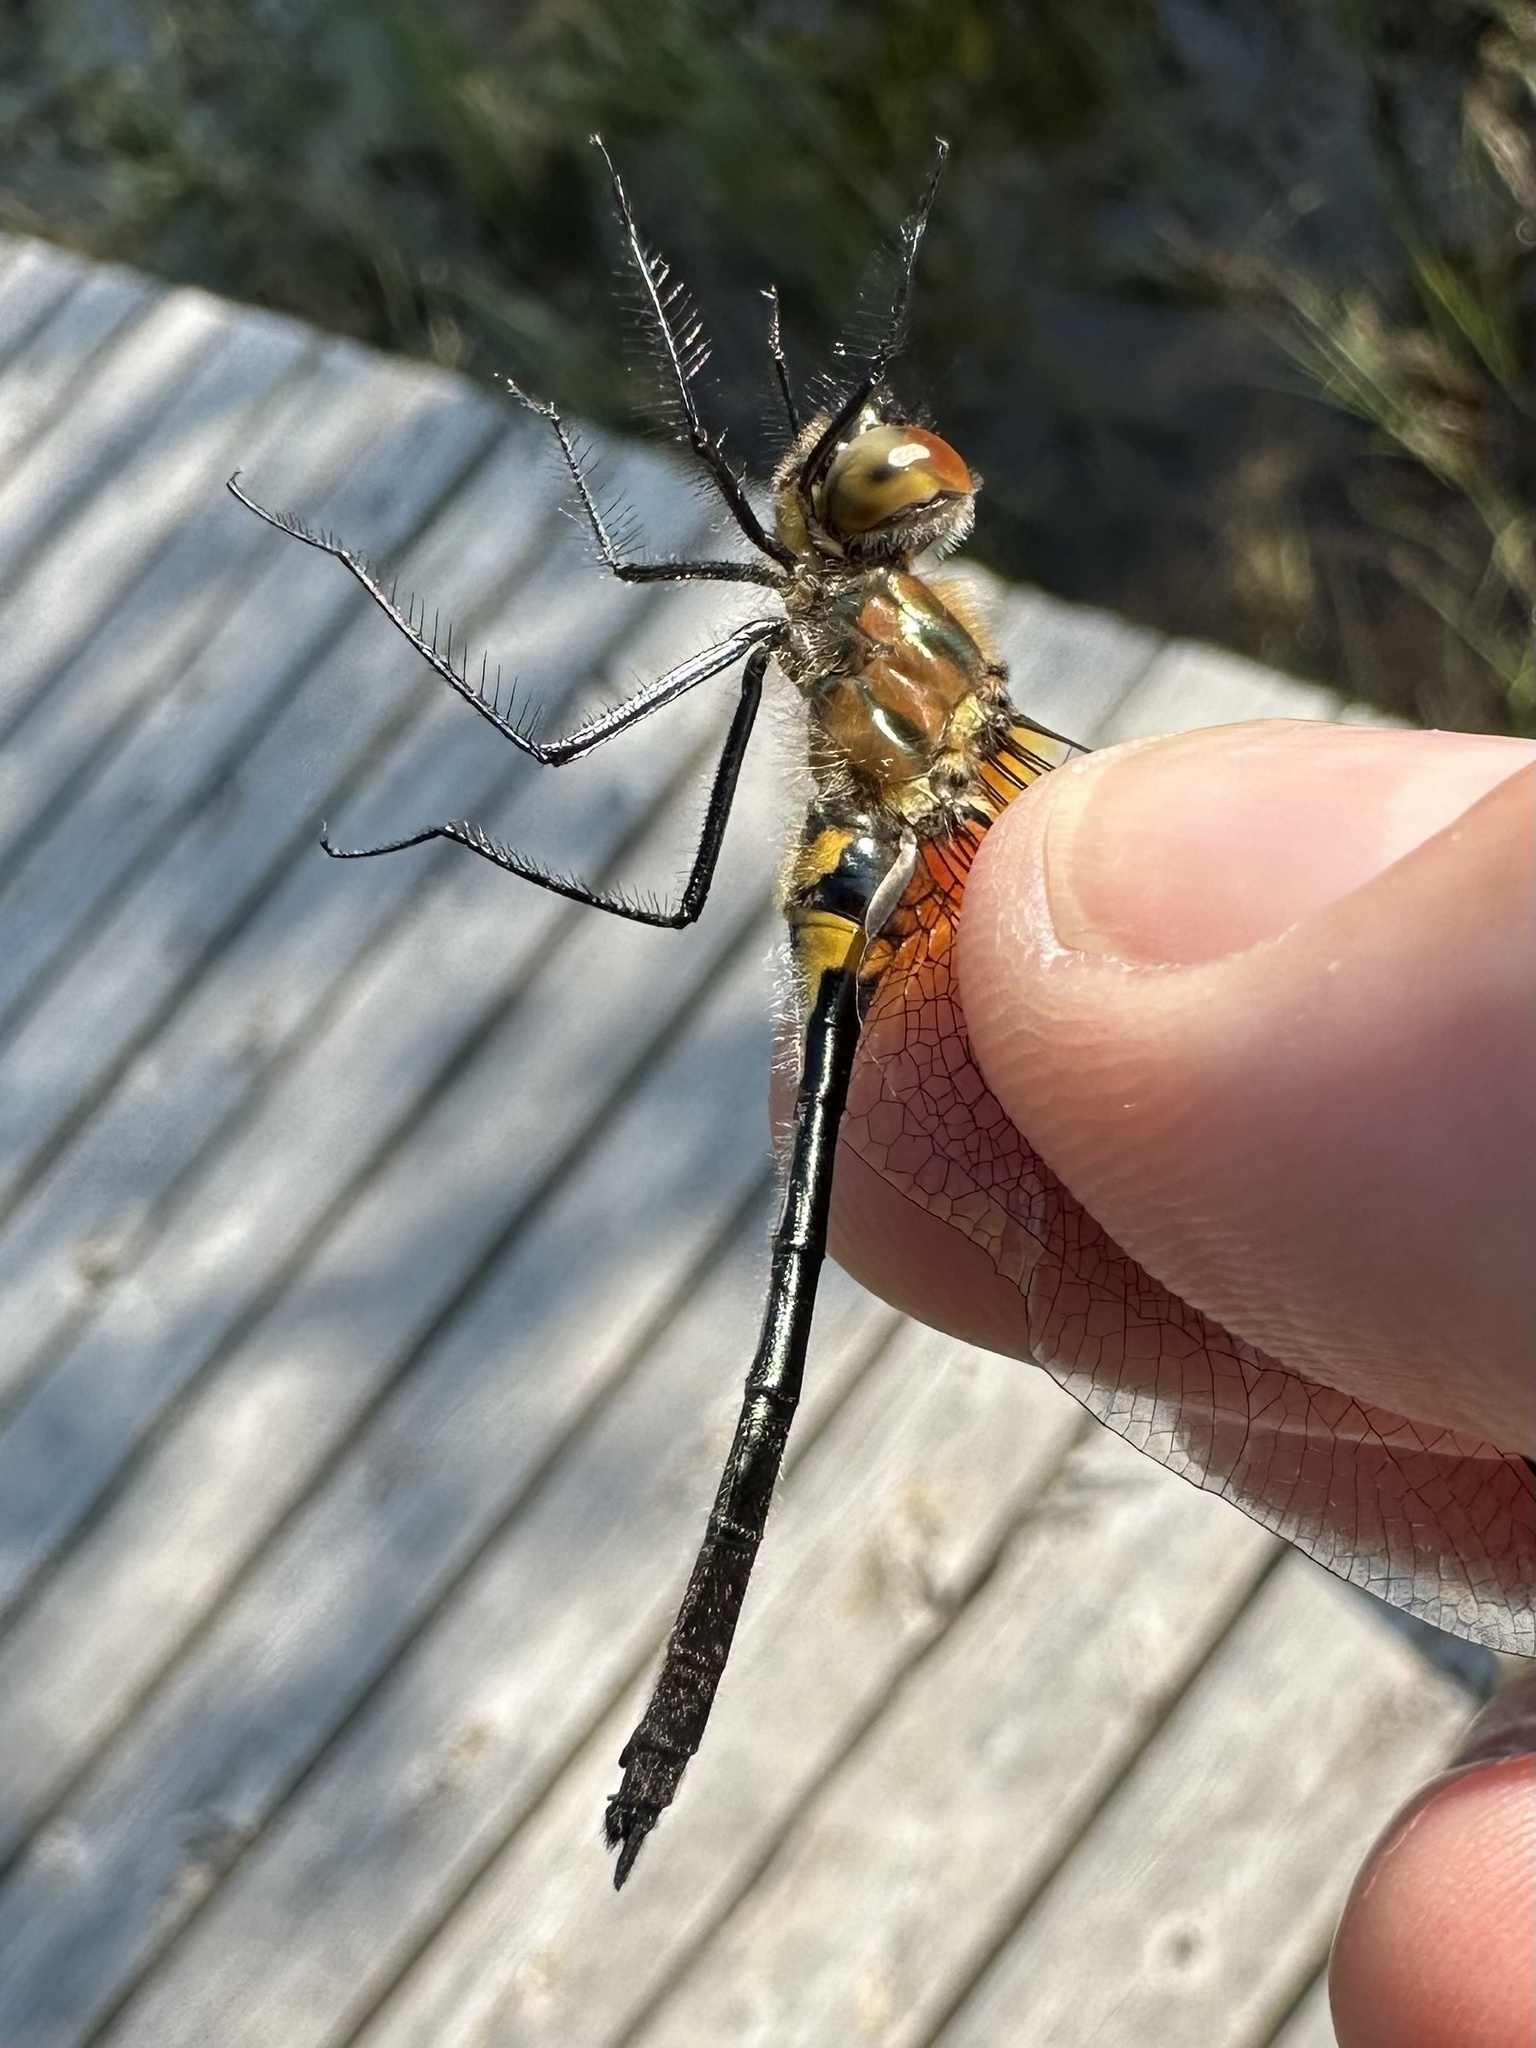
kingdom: Animalia
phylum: Arthropoda
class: Insecta
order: Odonata
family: Corduliidae
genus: Dorocordulia
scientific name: Dorocordulia libera
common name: Racket-tailed emerald
